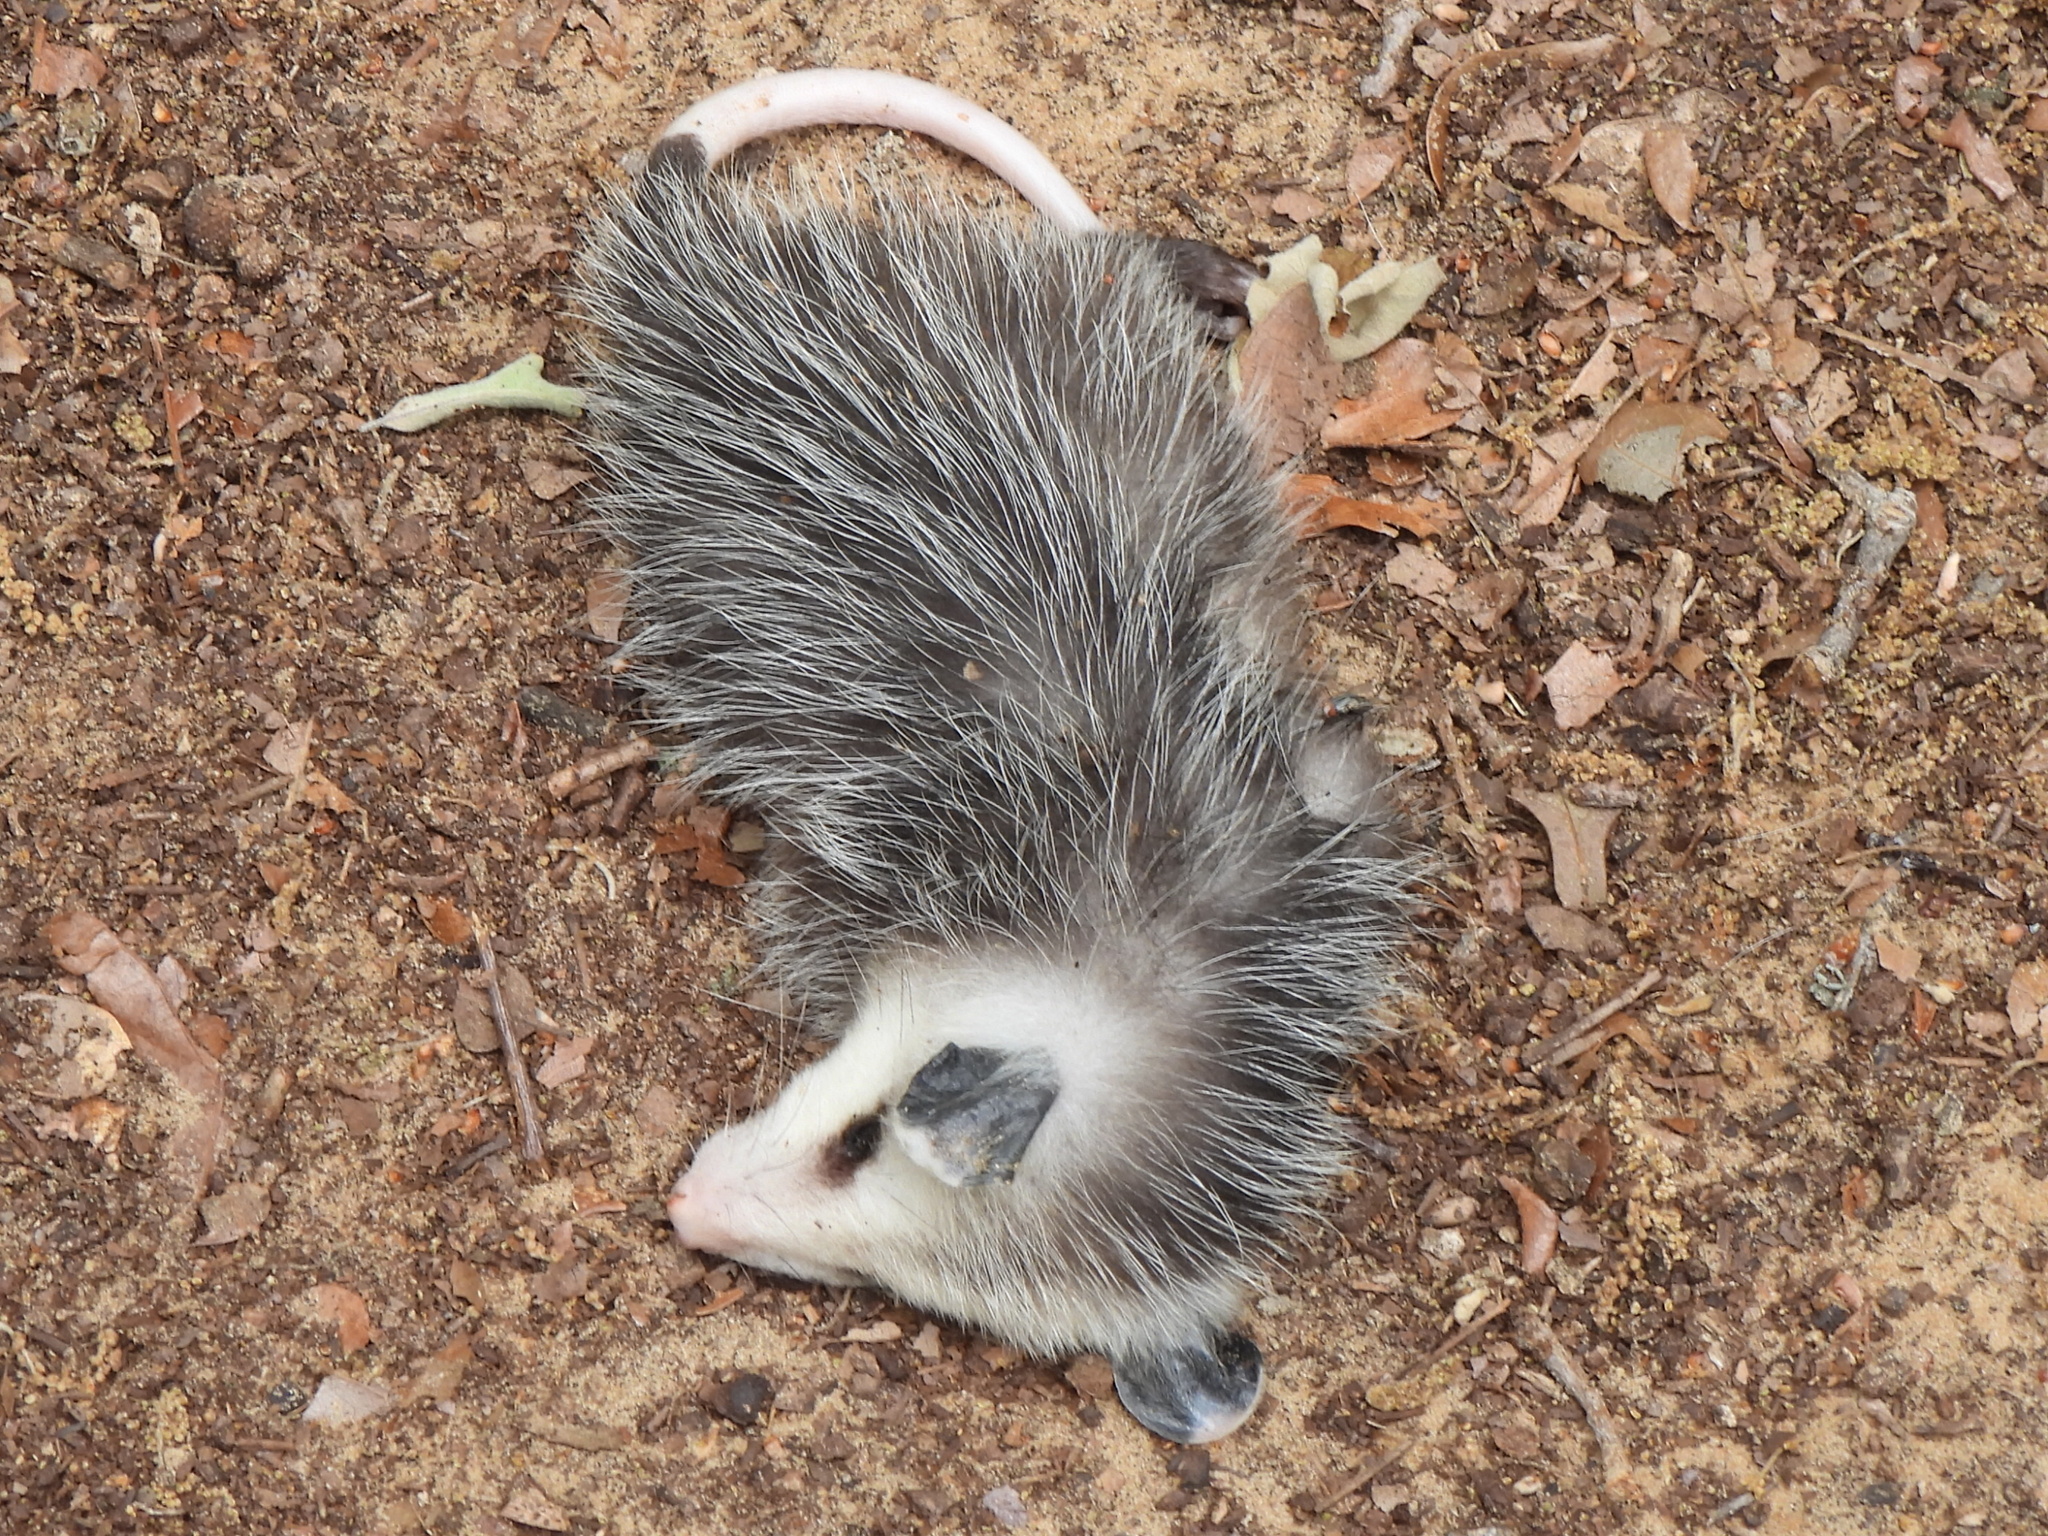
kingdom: Animalia
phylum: Chordata
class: Mammalia
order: Didelphimorphia
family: Didelphidae
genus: Didelphis
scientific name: Didelphis virginiana
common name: Virginia opossum
